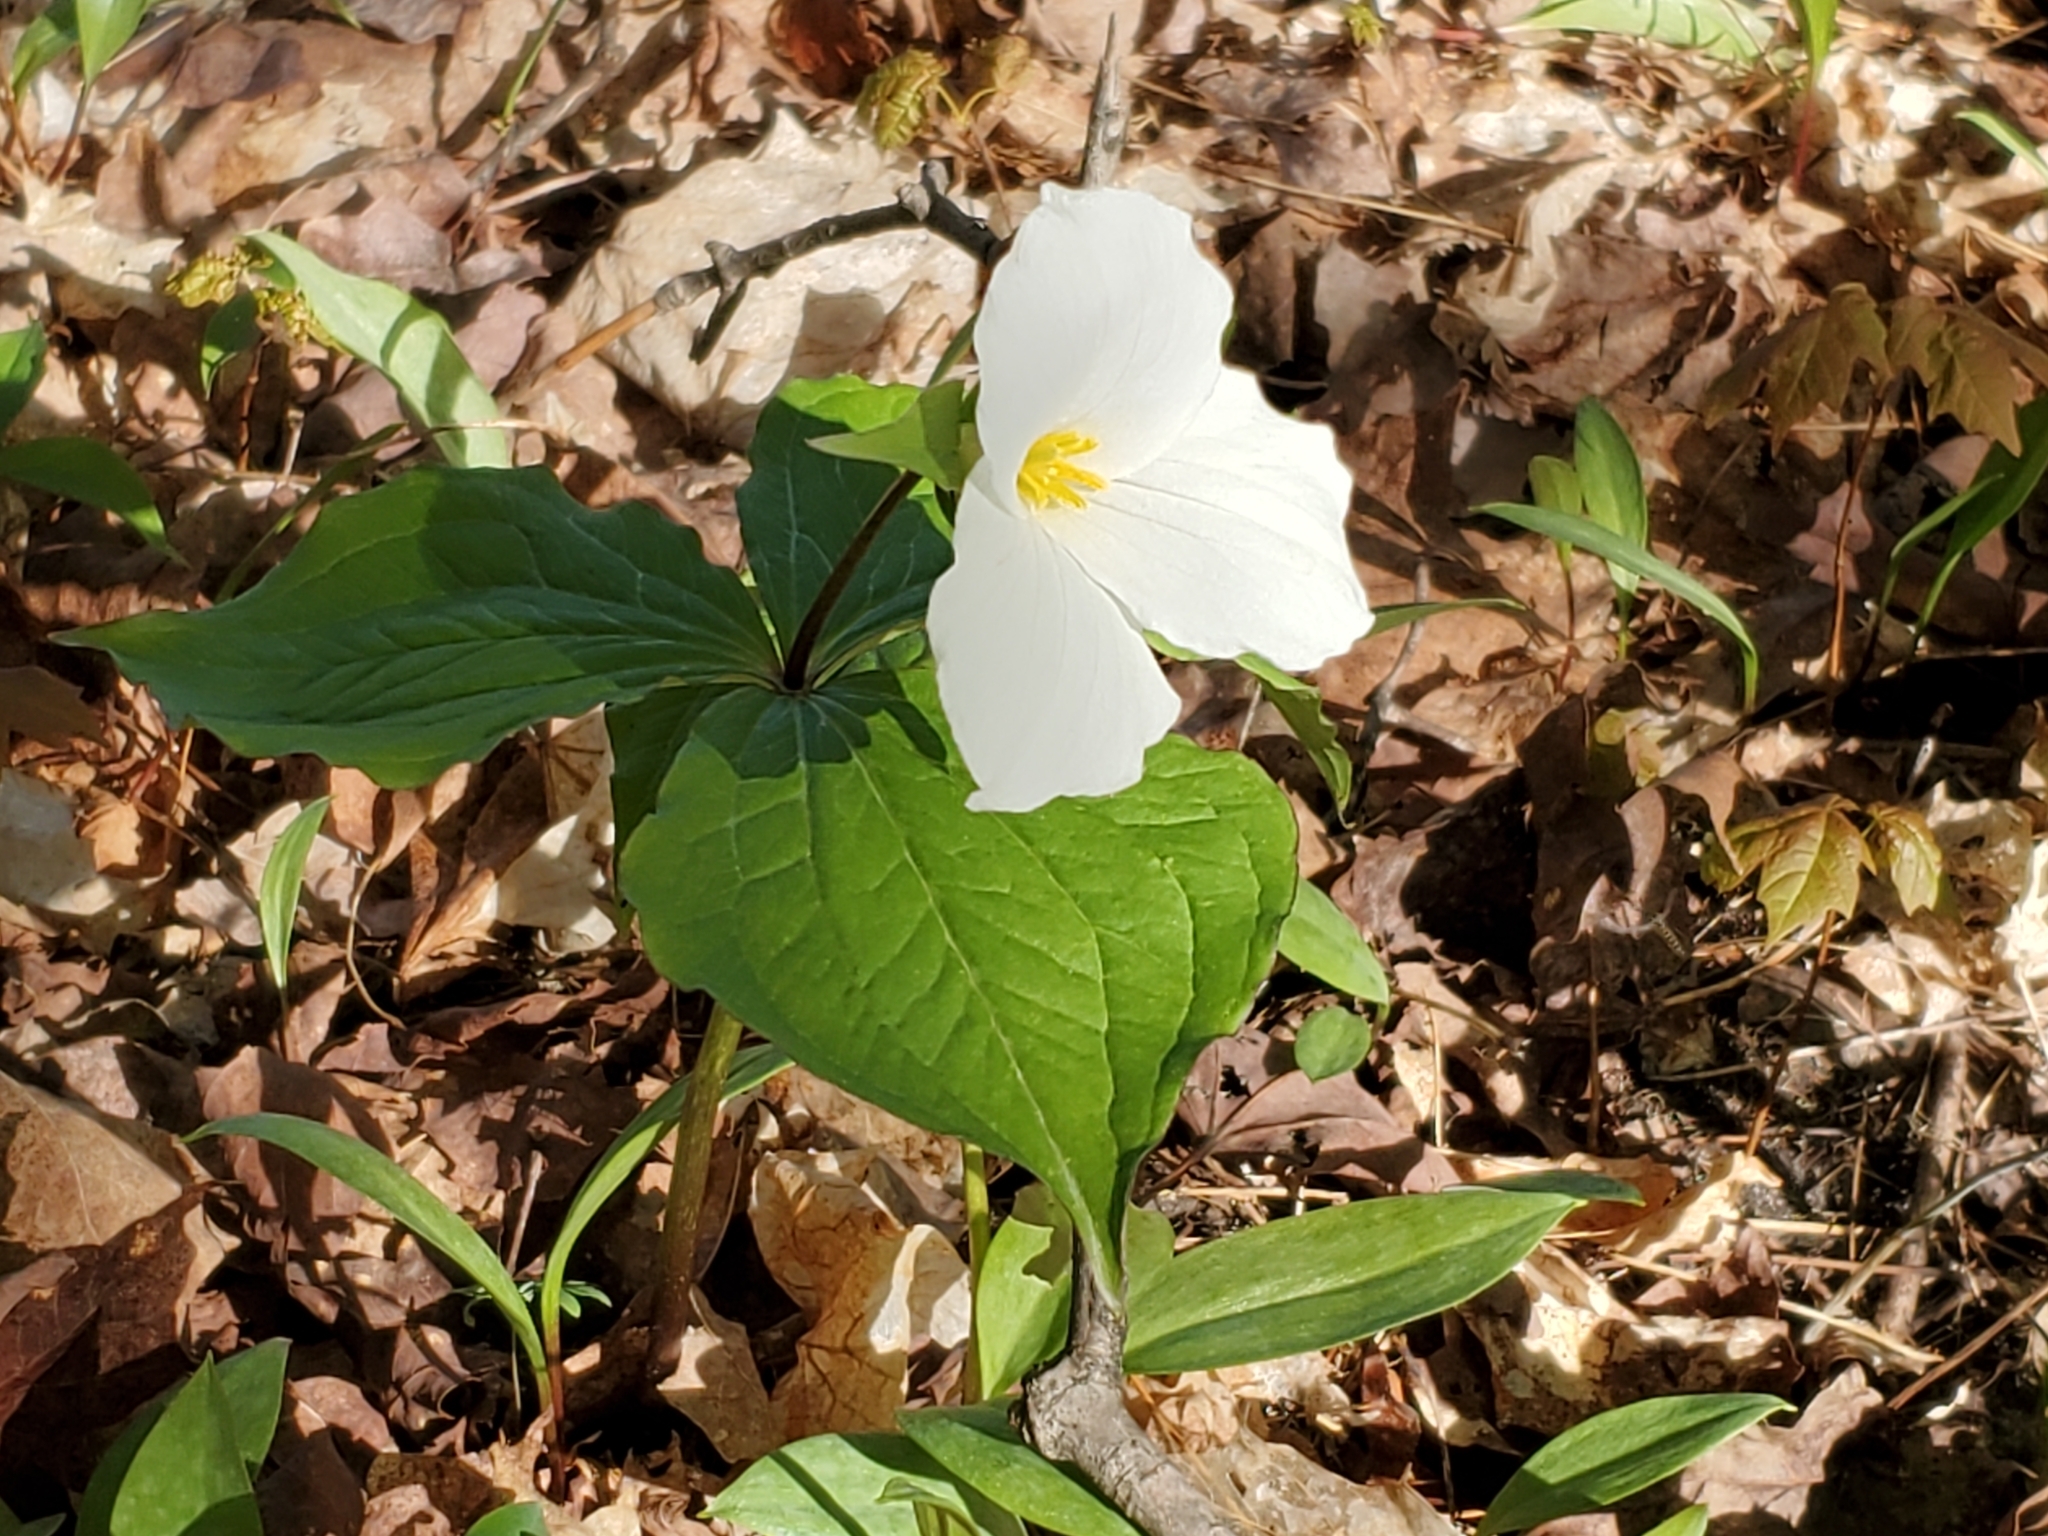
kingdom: Plantae
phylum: Tracheophyta
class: Liliopsida
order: Liliales
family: Melanthiaceae
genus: Trillium
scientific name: Trillium grandiflorum
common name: Great white trillium
